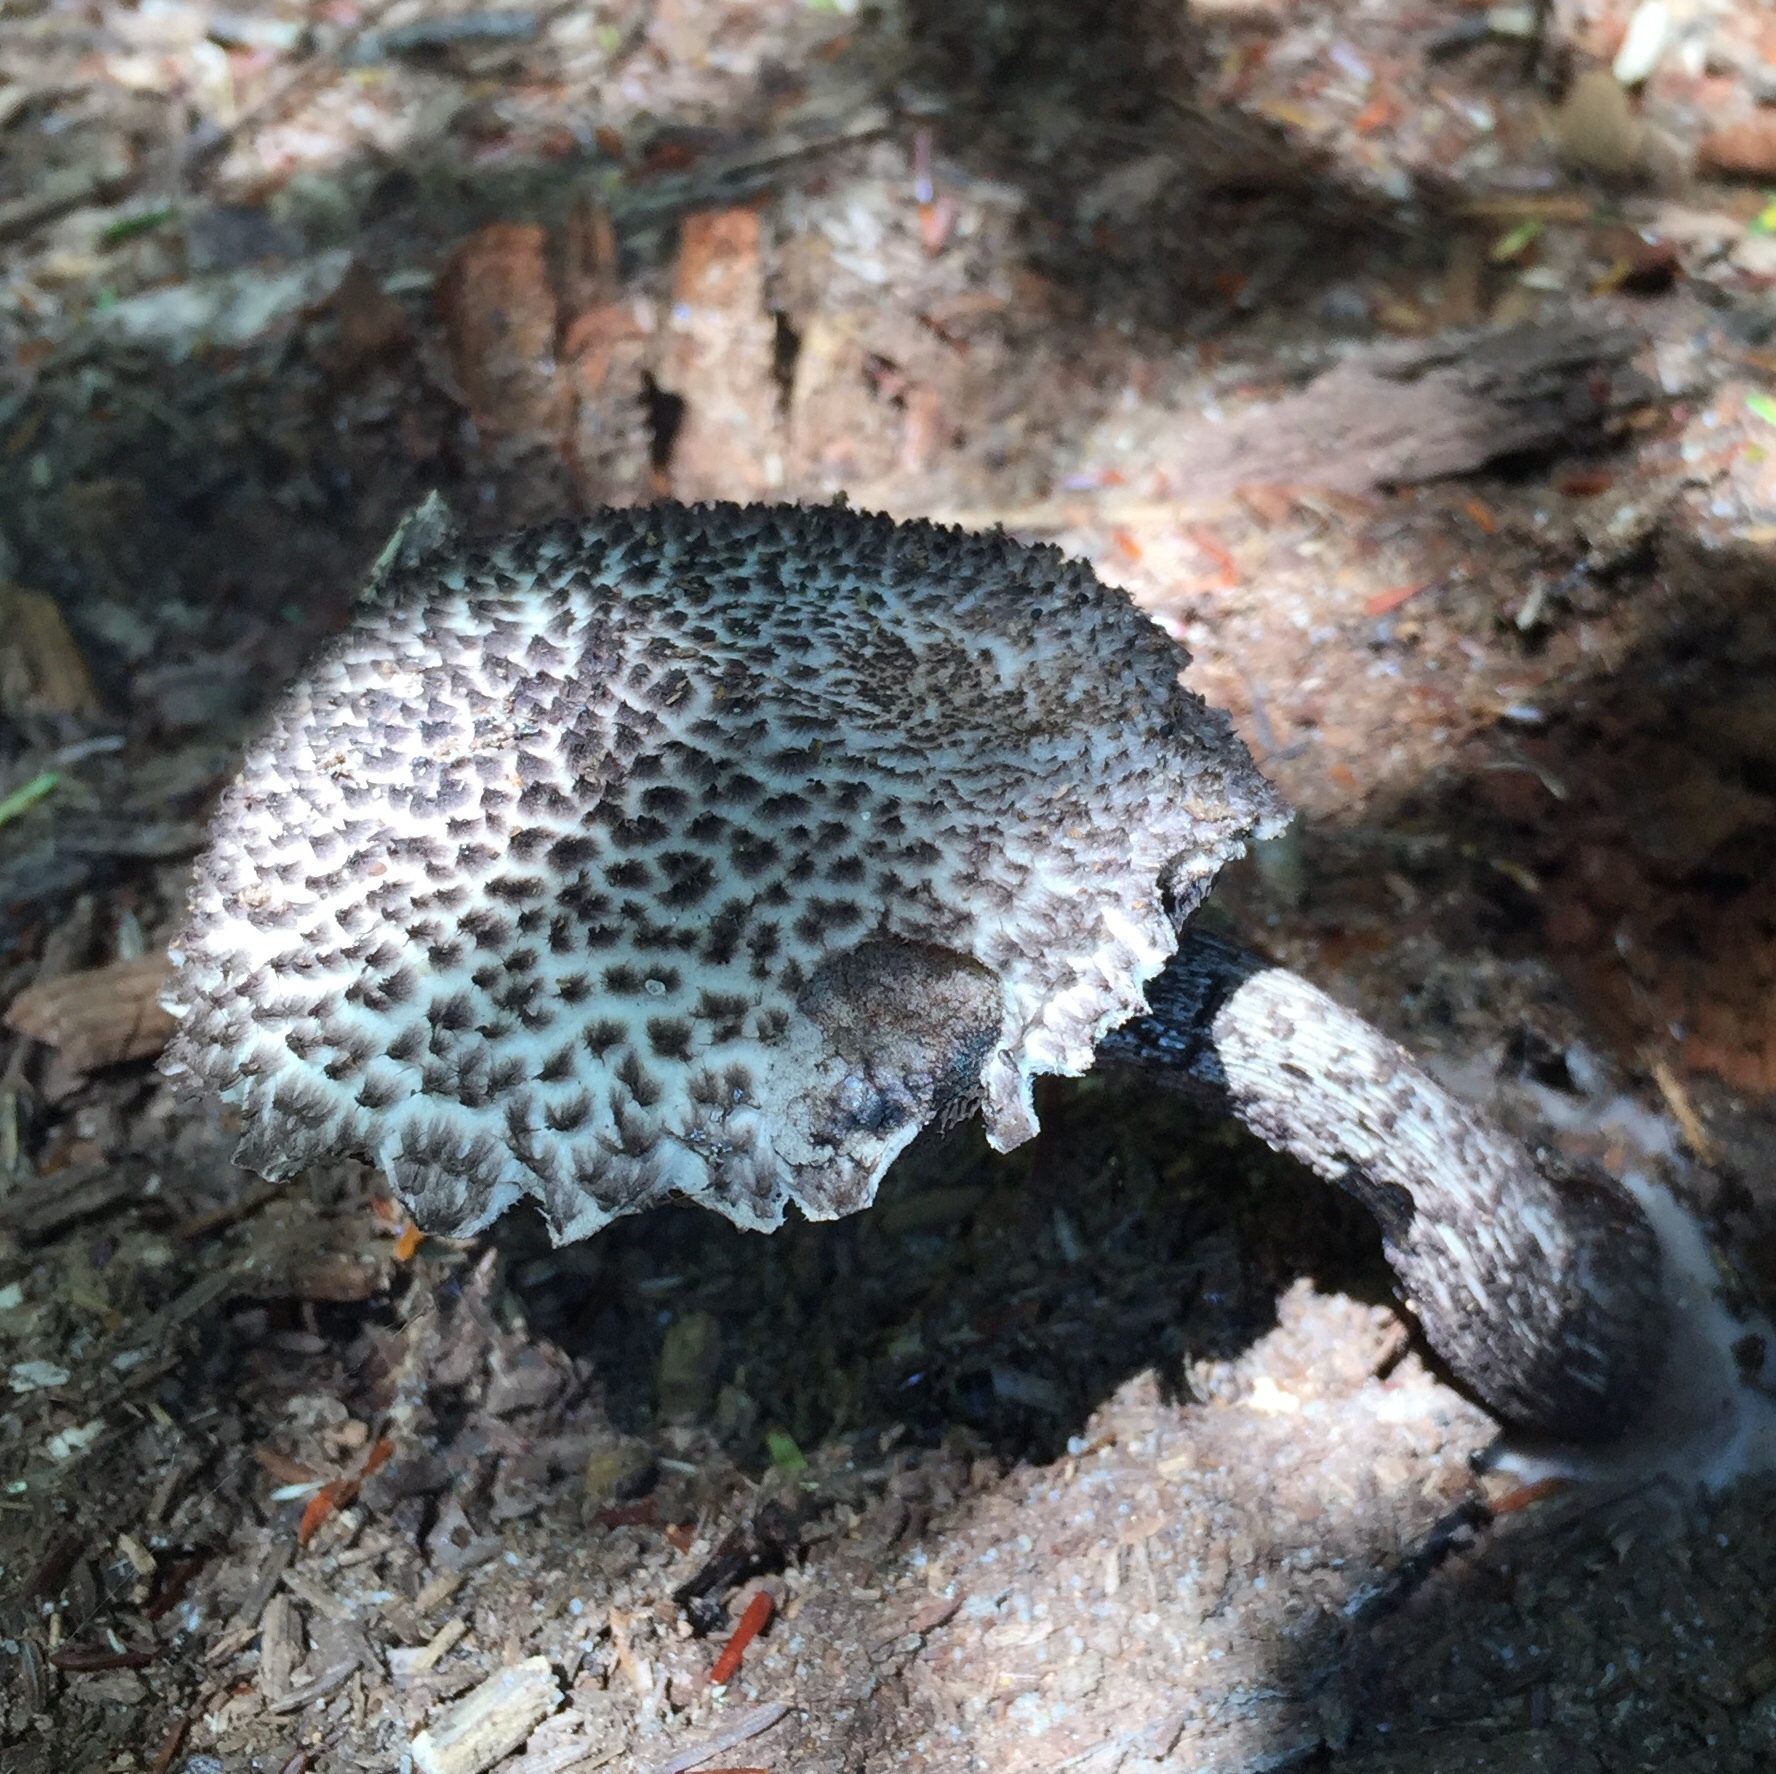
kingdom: Fungi
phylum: Basidiomycota
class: Agaricomycetes
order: Boletales
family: Boletaceae
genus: Strobilomyces
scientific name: Strobilomyces strobilaceus
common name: Old man of the woods
